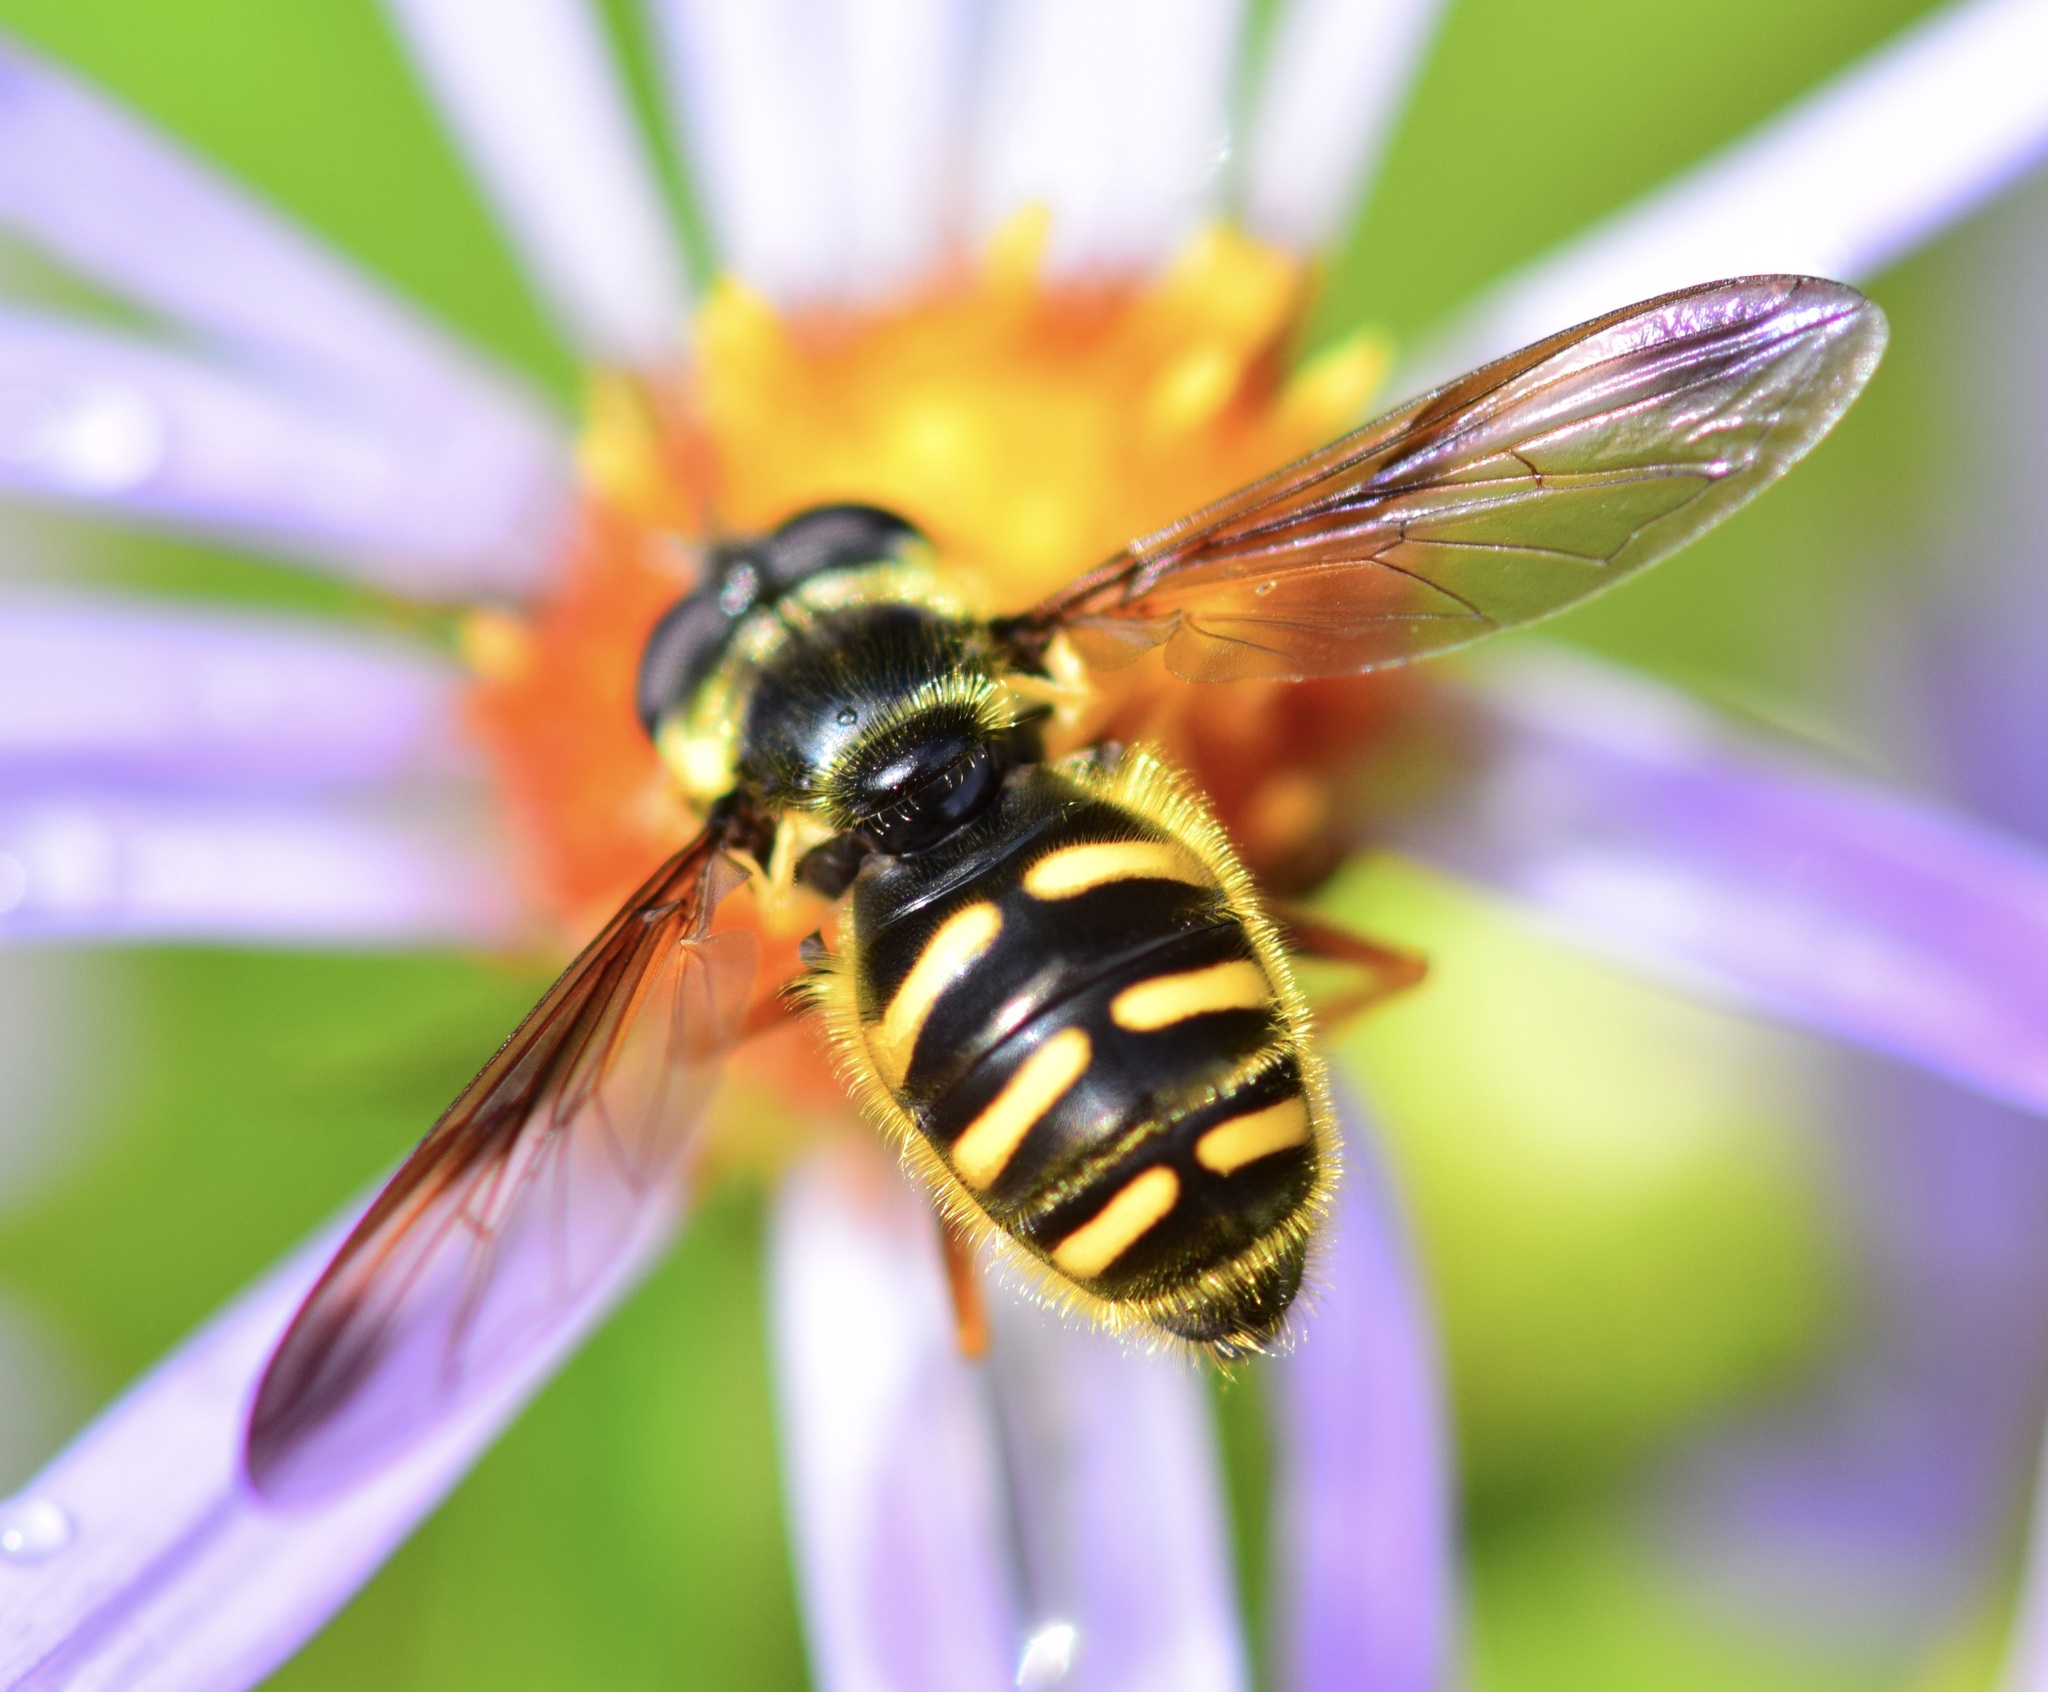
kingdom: Animalia
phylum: Arthropoda
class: Insecta
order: Diptera
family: Syrphidae
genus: Sericomyia
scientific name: Sericomyia chrysotoxoides
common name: Oblique-banded pond fly
